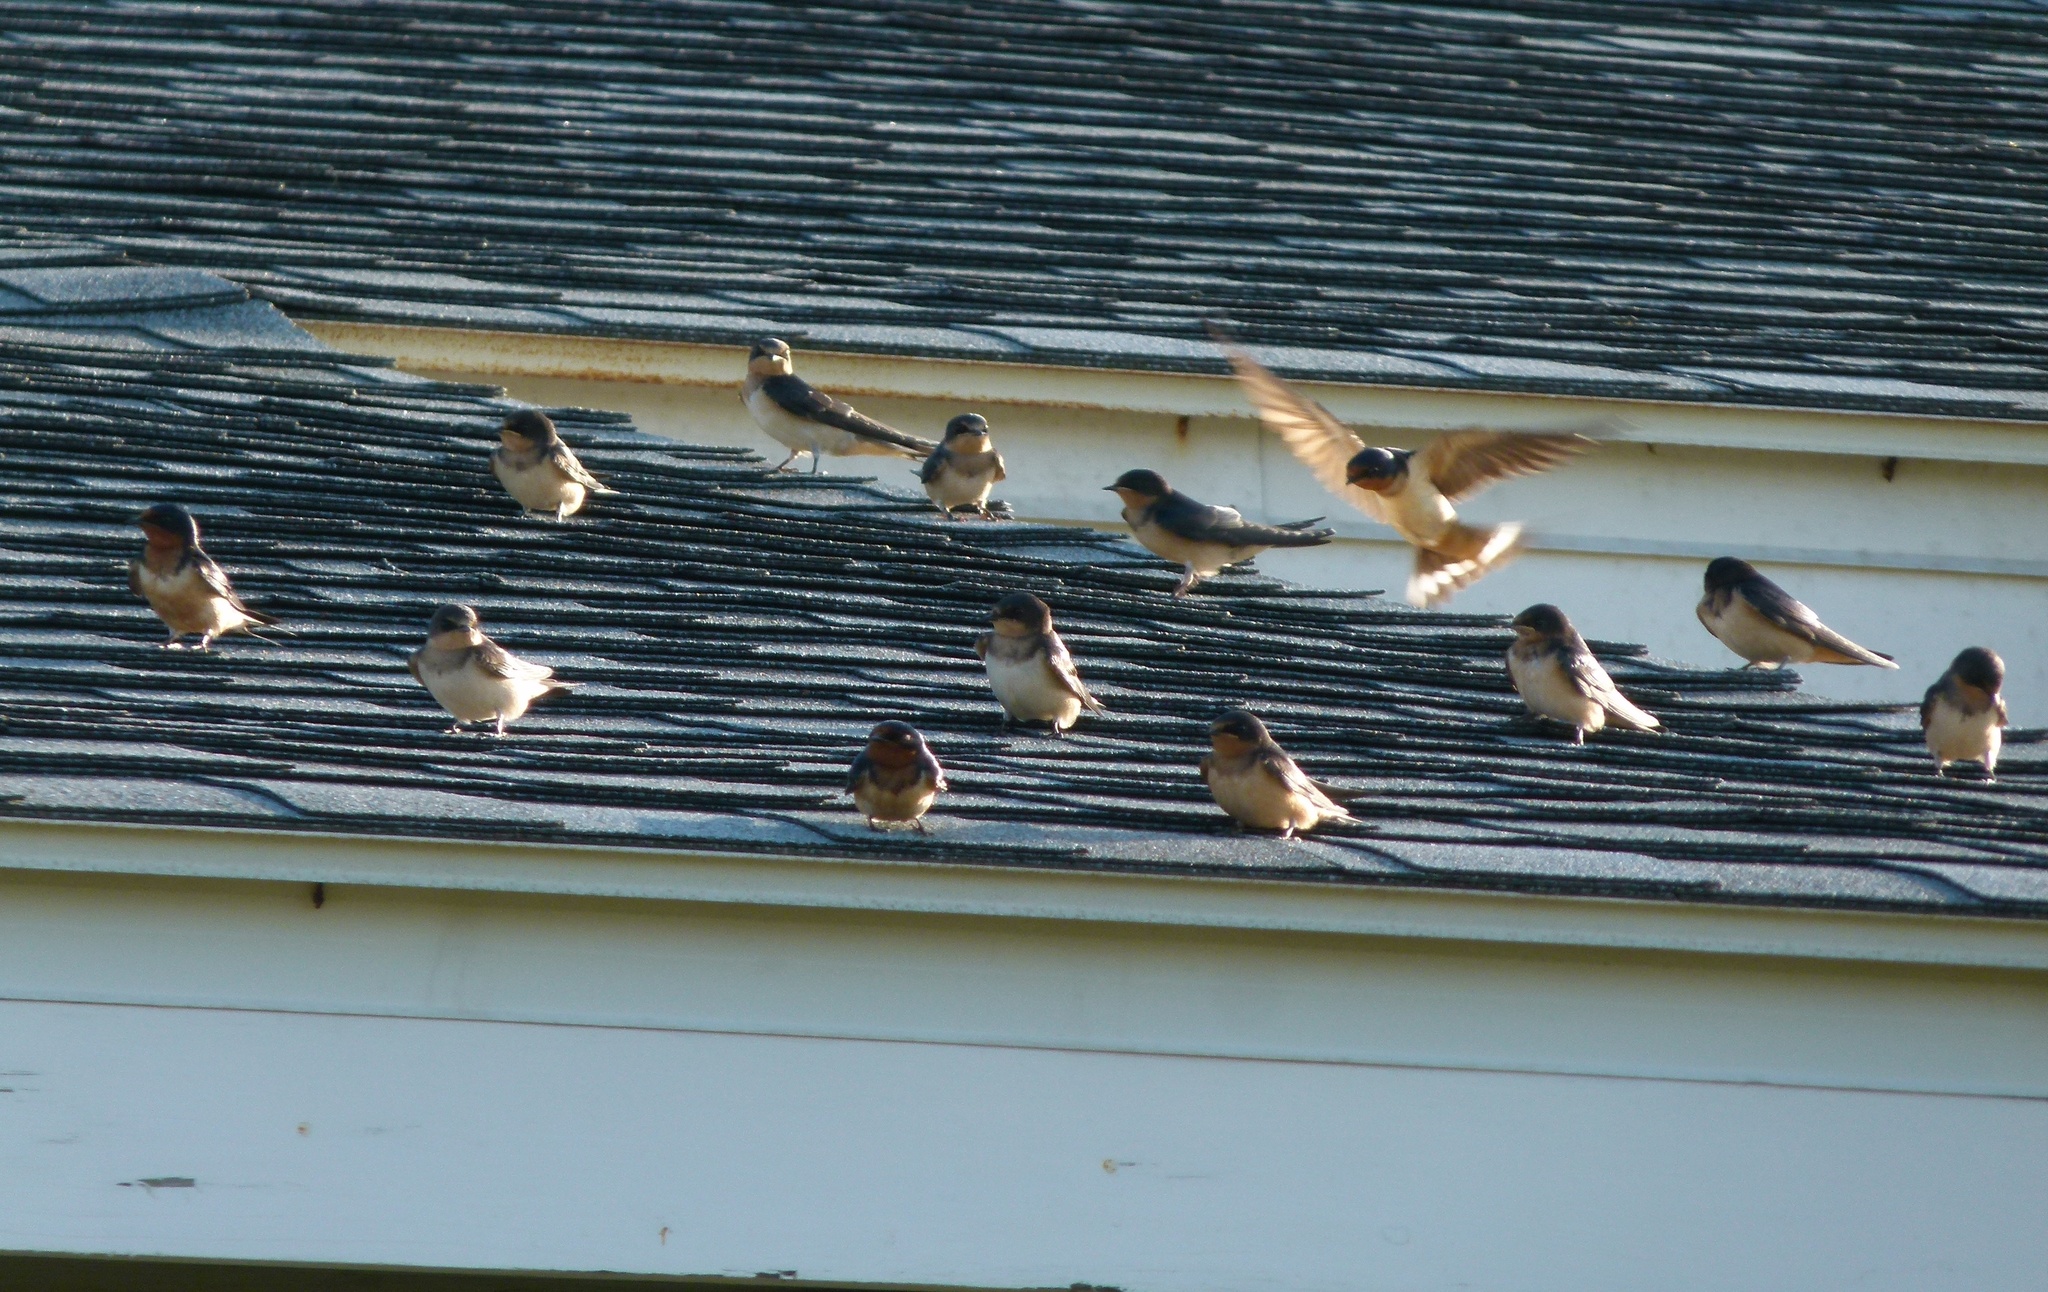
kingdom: Animalia
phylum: Chordata
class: Aves
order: Passeriformes
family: Hirundinidae
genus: Hirundo
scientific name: Hirundo rustica
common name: Barn swallow
